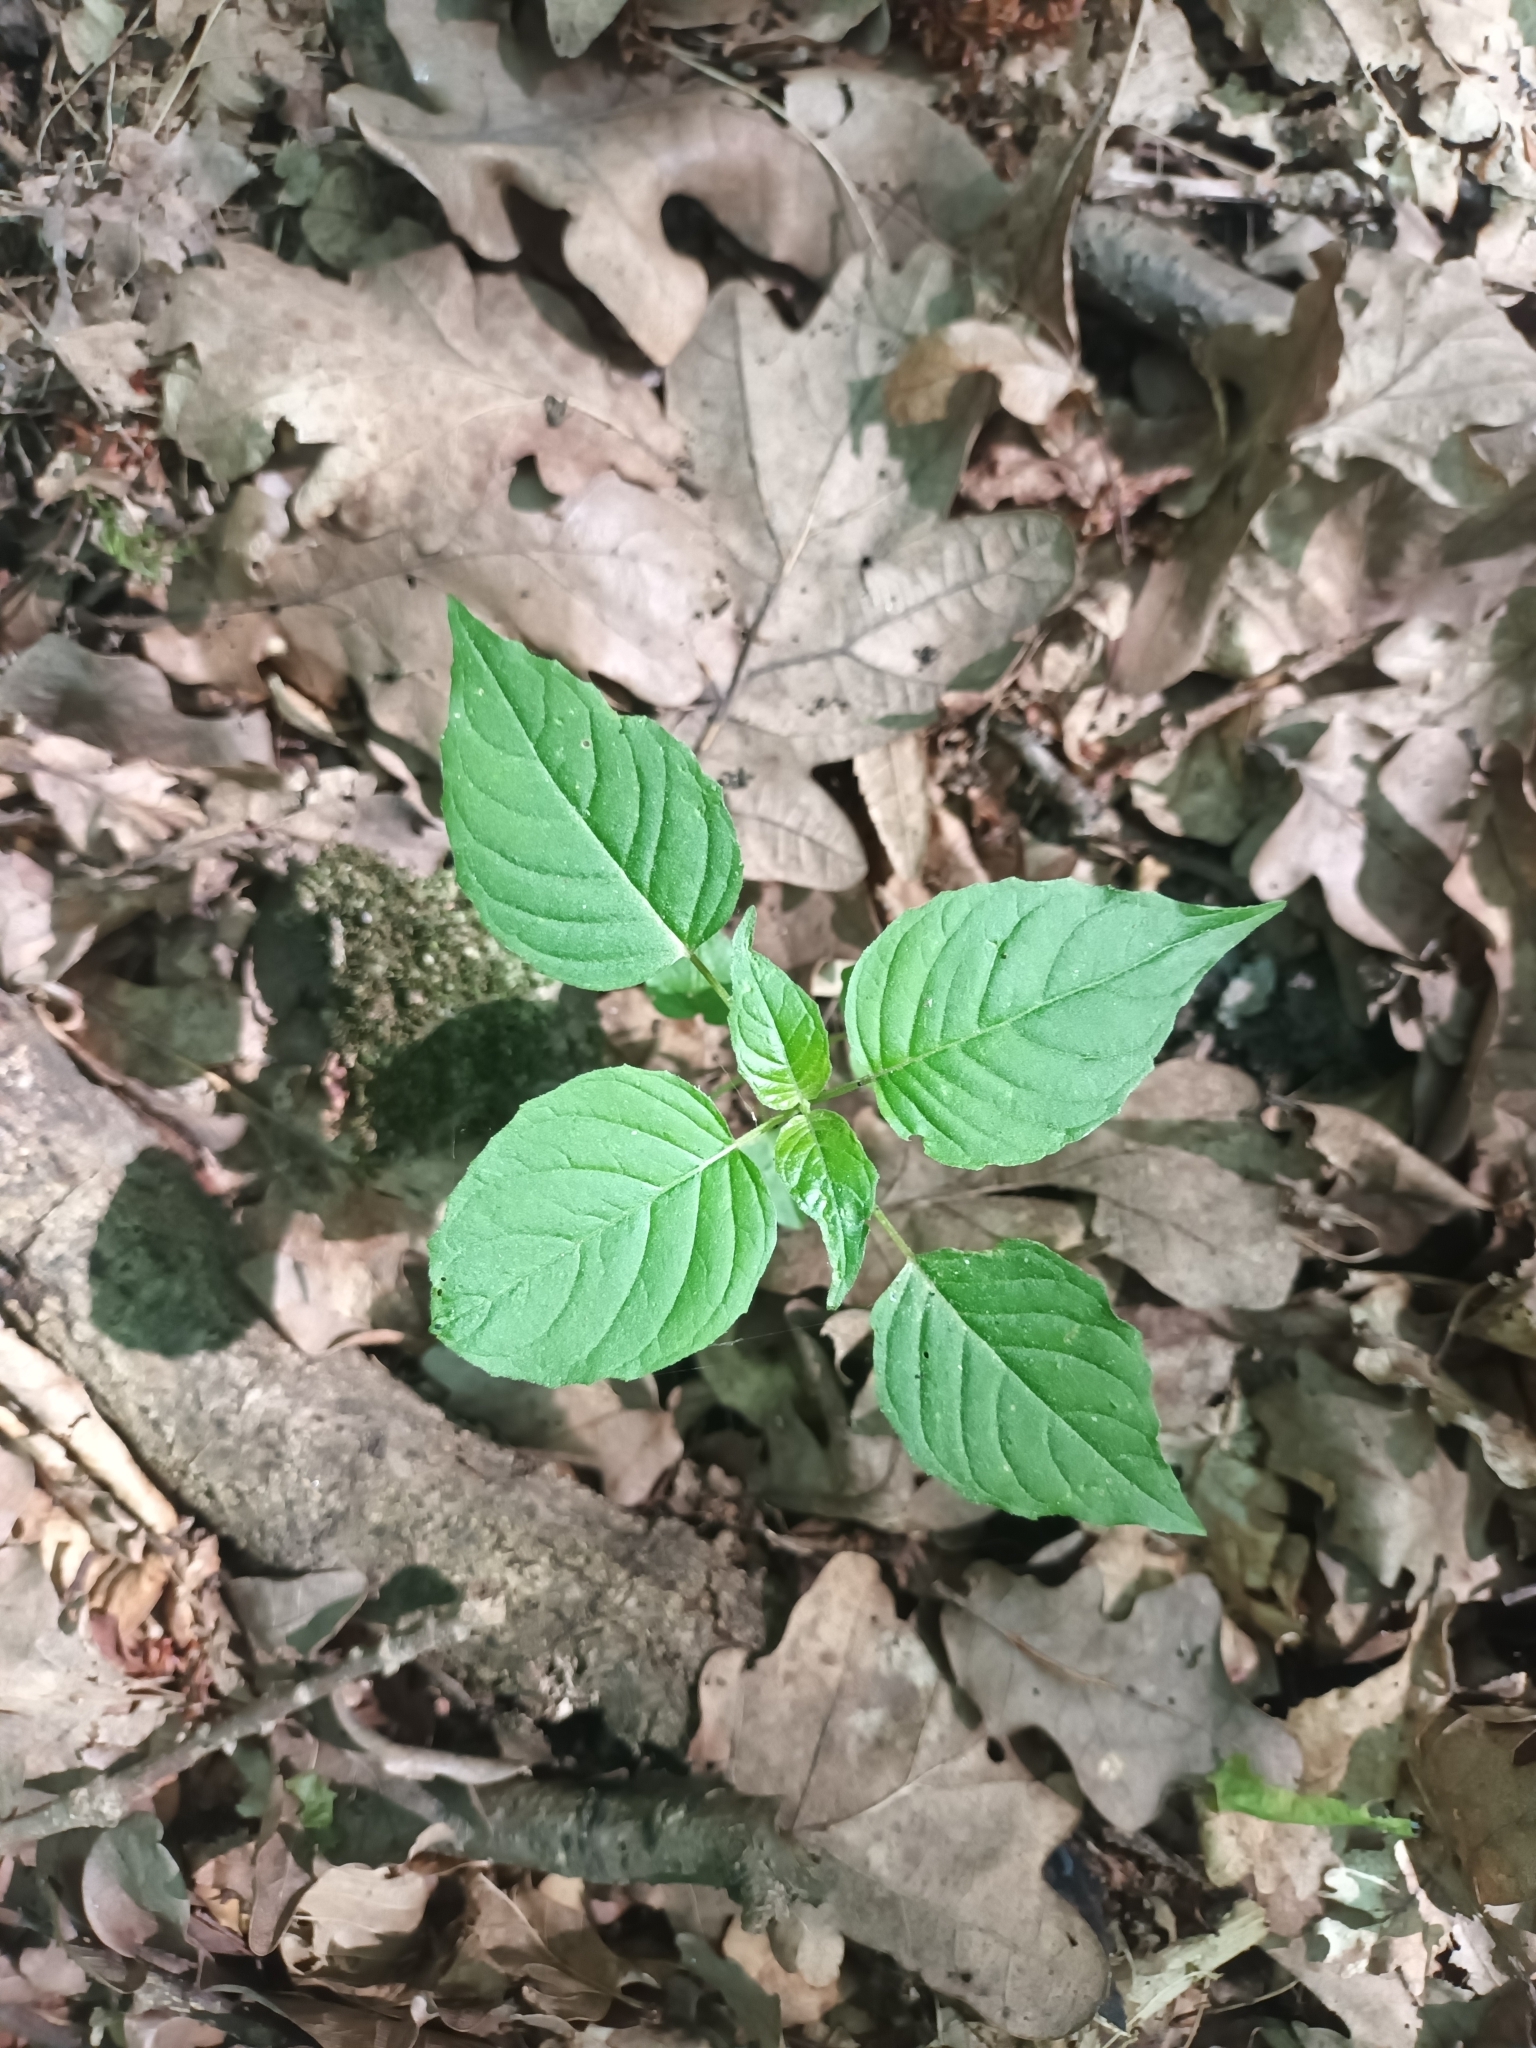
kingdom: Plantae
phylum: Tracheophyta
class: Magnoliopsida
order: Myrtales
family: Onagraceae
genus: Circaea
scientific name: Circaea lutetiana
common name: Enchanter's-nightshade
